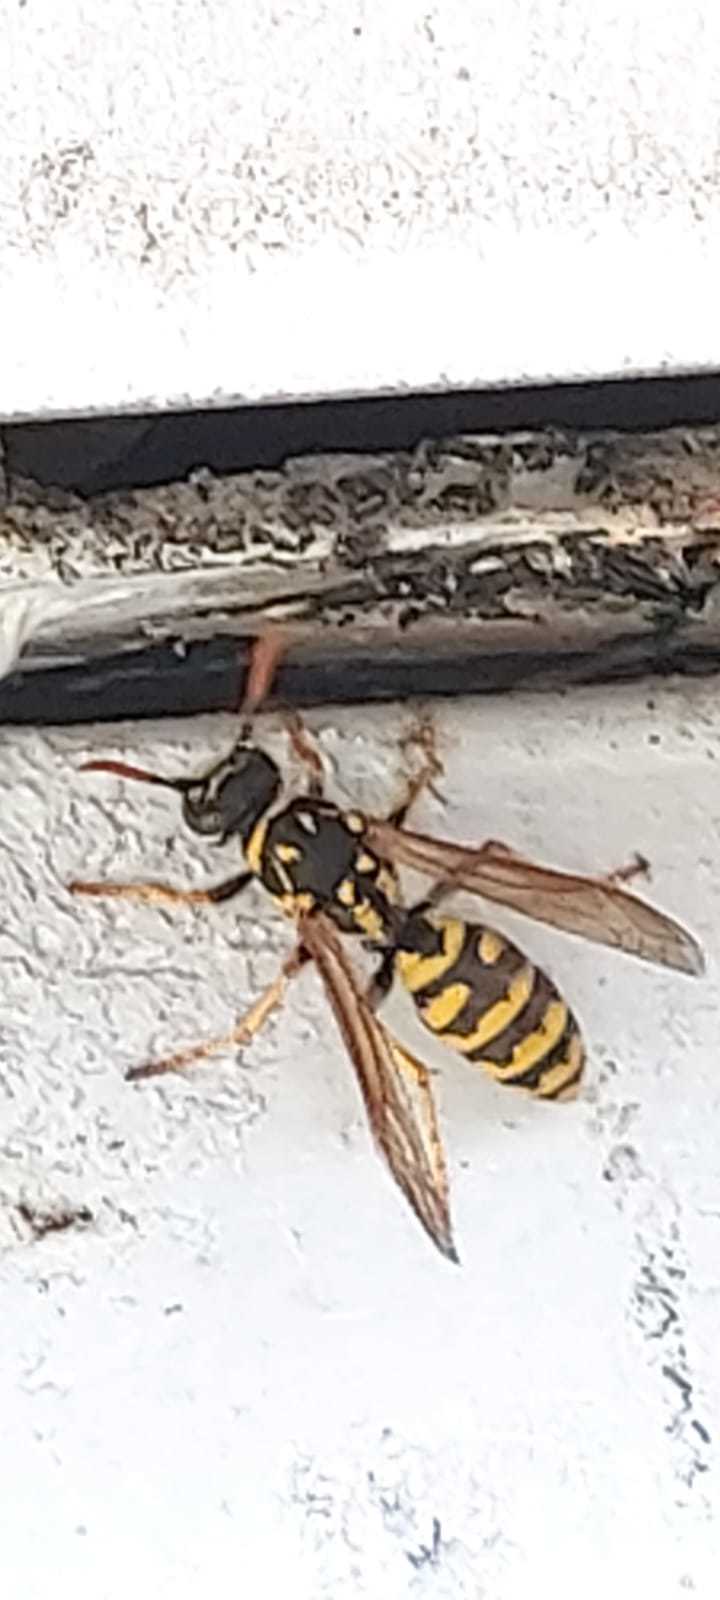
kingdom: Animalia
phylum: Arthropoda
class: Insecta
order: Hymenoptera
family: Eumenidae
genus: Polistes
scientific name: Polistes dominula
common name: Paper wasp
